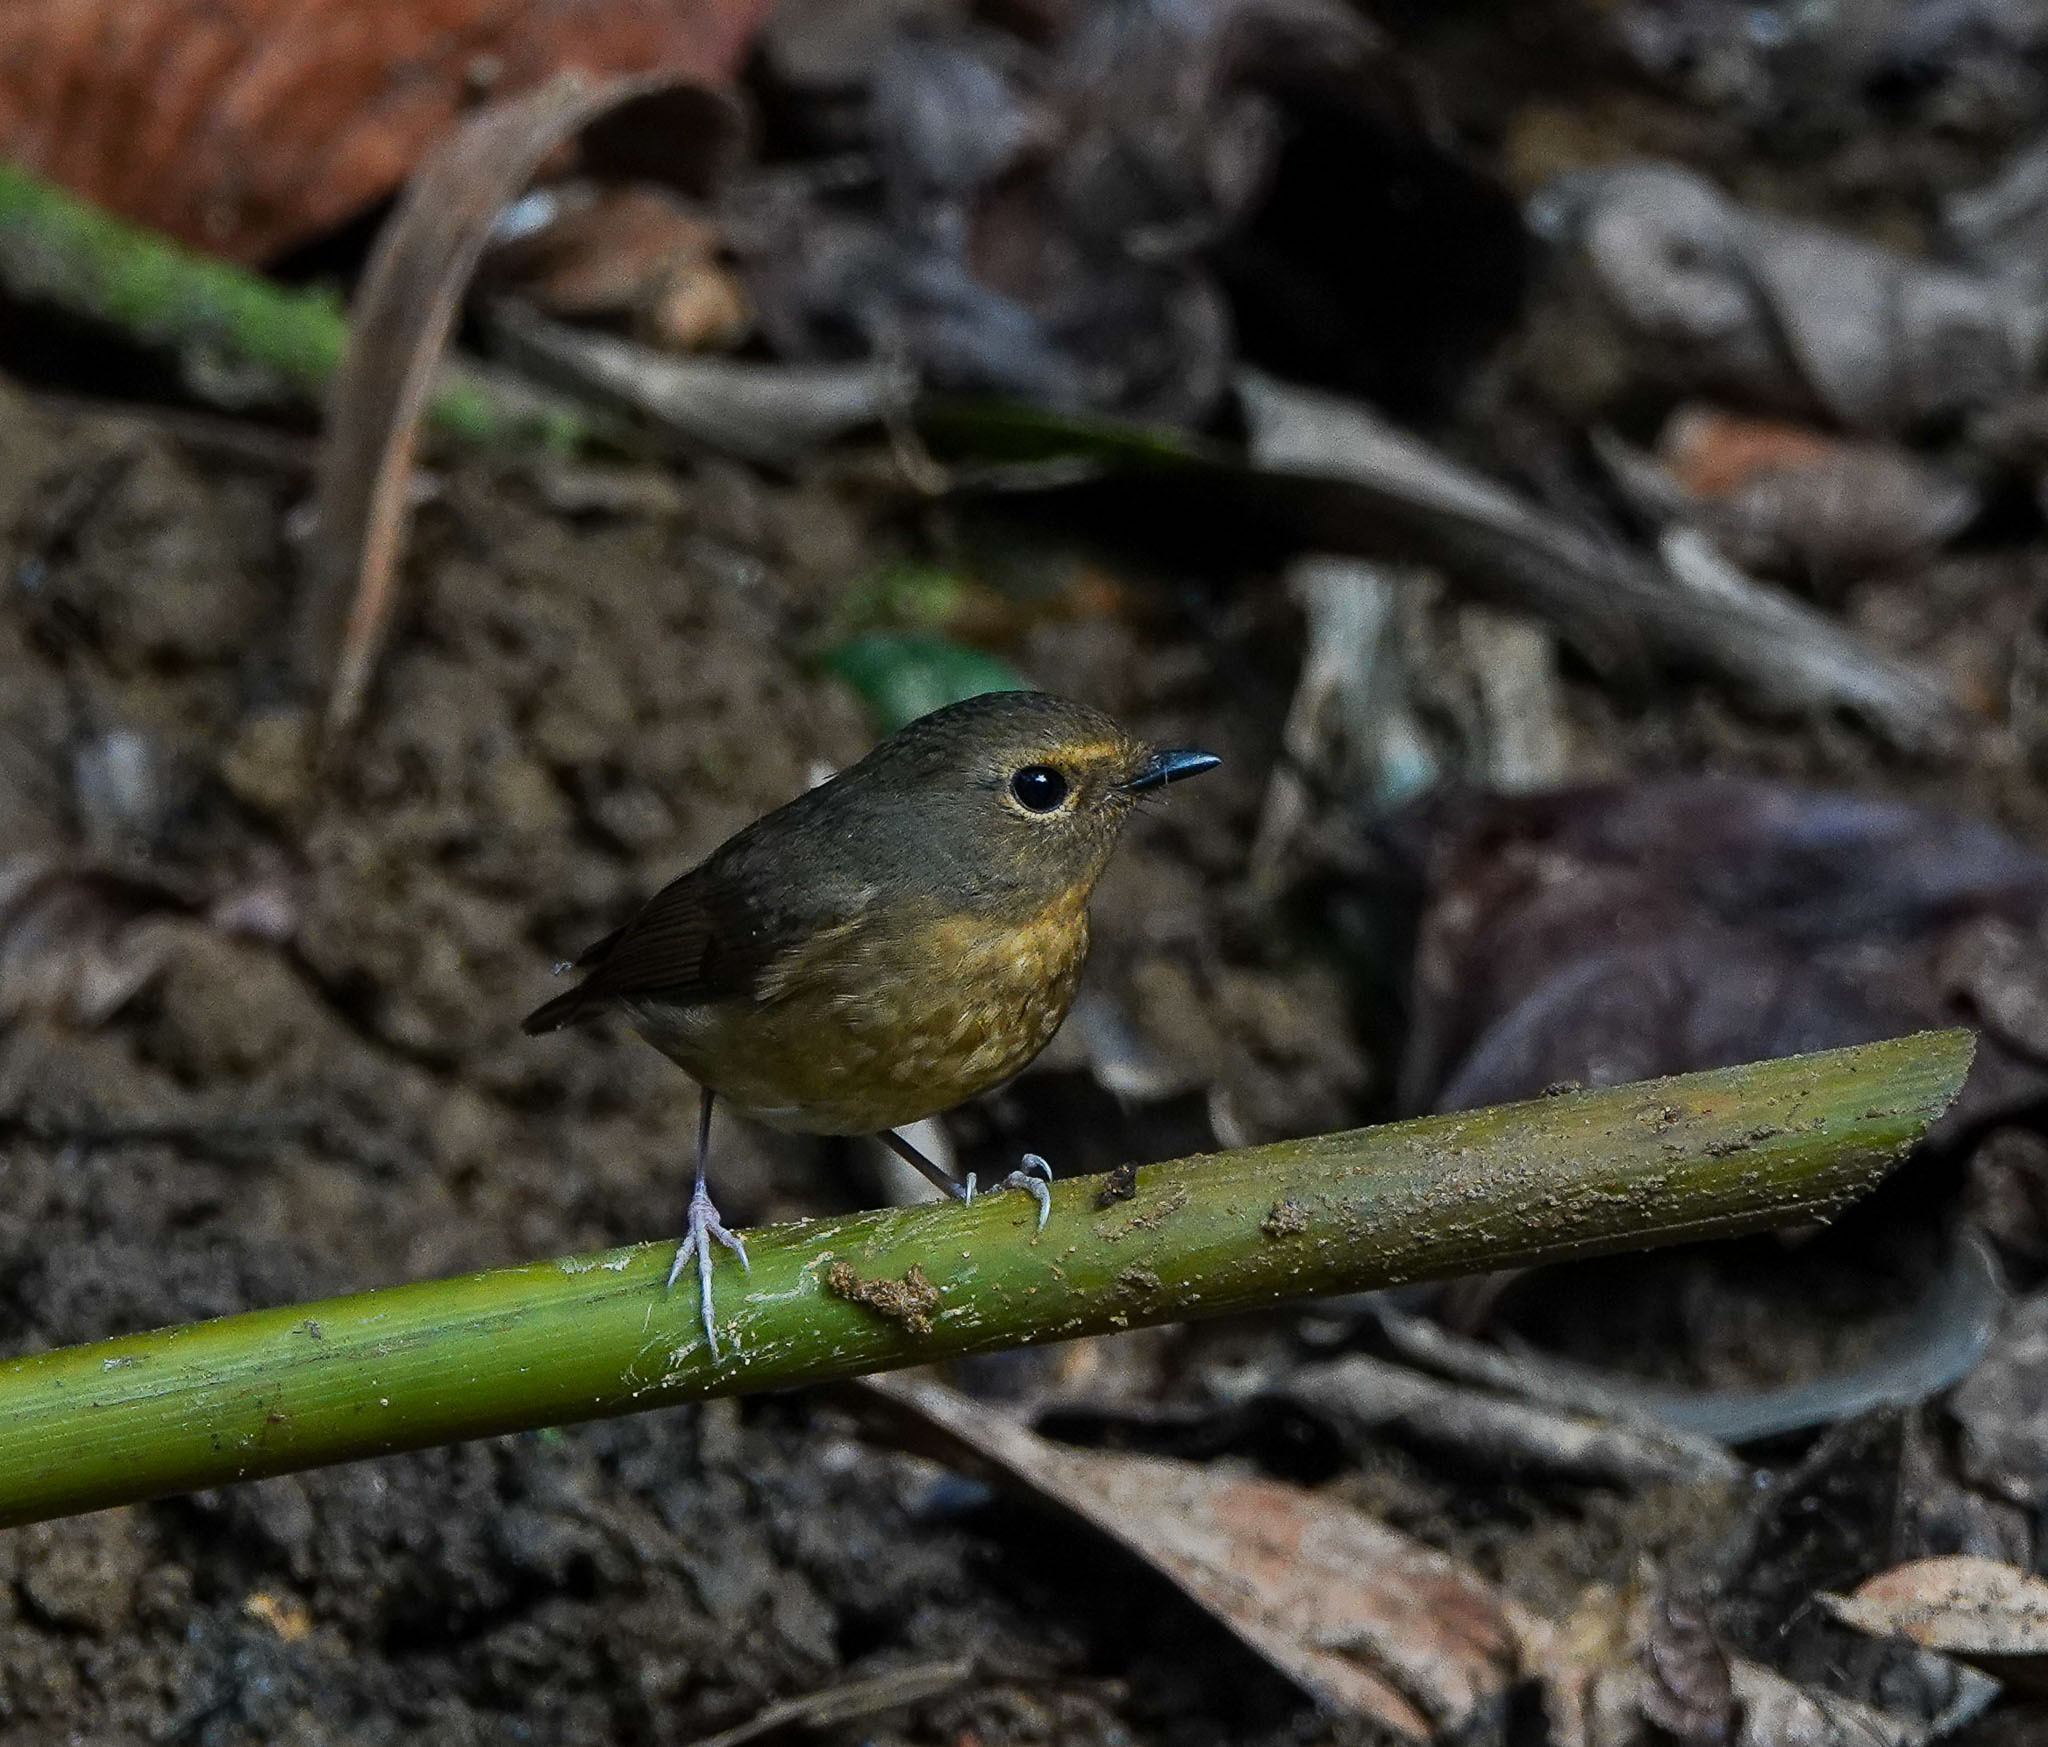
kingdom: Animalia
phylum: Chordata
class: Aves
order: Passeriformes
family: Muscicapidae
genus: Ficedula
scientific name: Ficedula hyperythra
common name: Snowy-browed flycatcher
